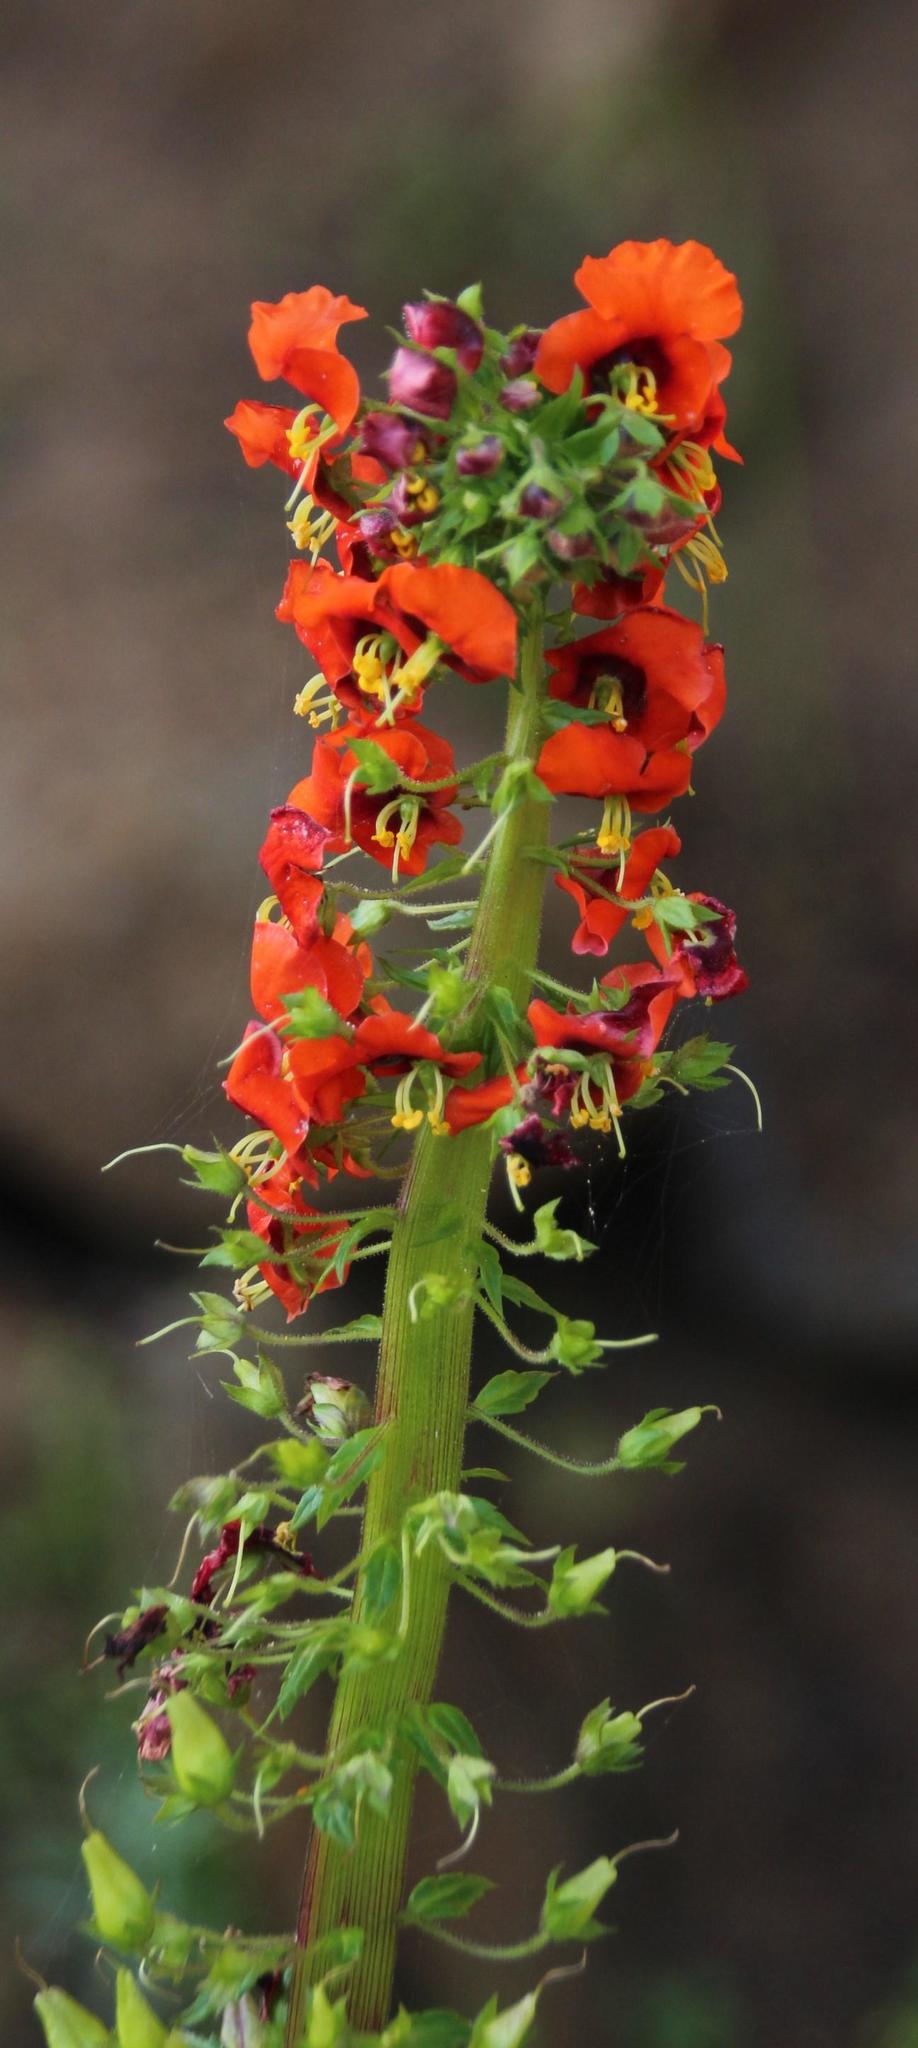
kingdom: Plantae
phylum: Tracheophyta
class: Magnoliopsida
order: Lamiales
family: Scrophulariaceae
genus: Alonsoa
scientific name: Alonsoa meridionalis
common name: Maskflower
